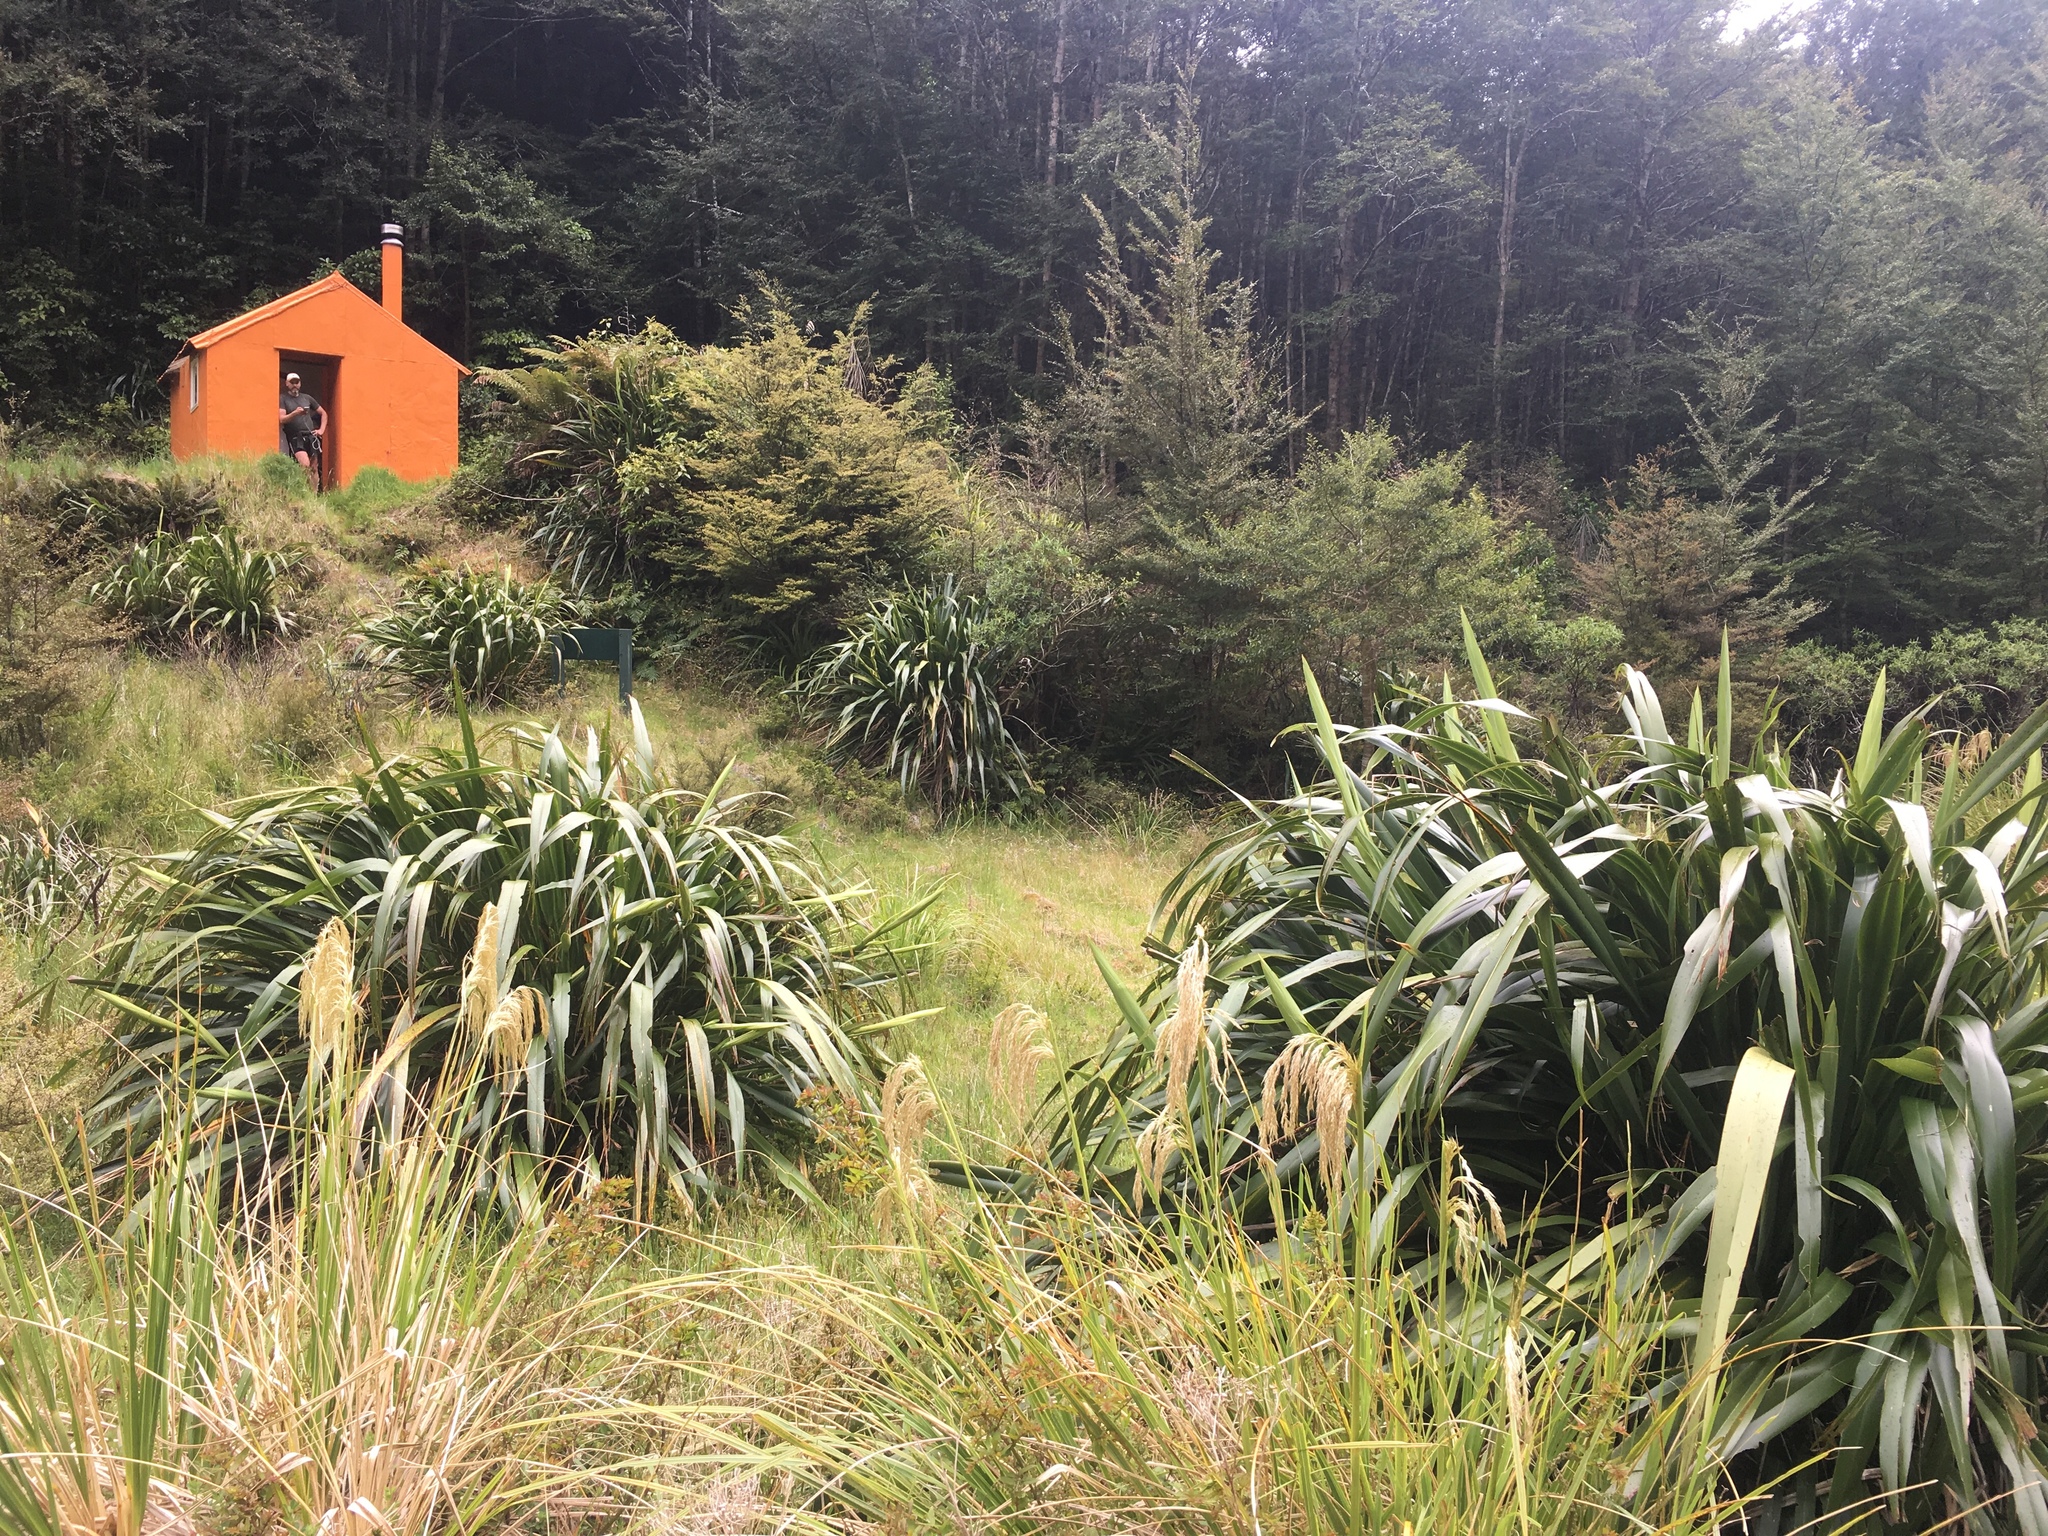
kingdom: Plantae
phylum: Tracheophyta
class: Liliopsida
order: Asparagales
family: Asphodelaceae
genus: Phormium
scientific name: Phormium colensoi
